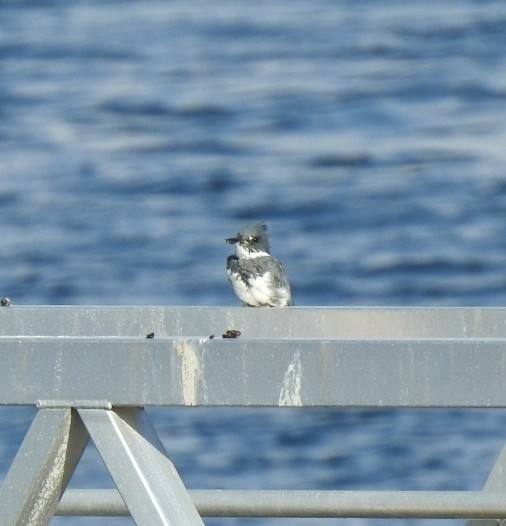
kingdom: Animalia
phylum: Chordata
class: Aves
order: Coraciiformes
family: Alcedinidae
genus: Megaceryle
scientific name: Megaceryle alcyon
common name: Belted kingfisher
